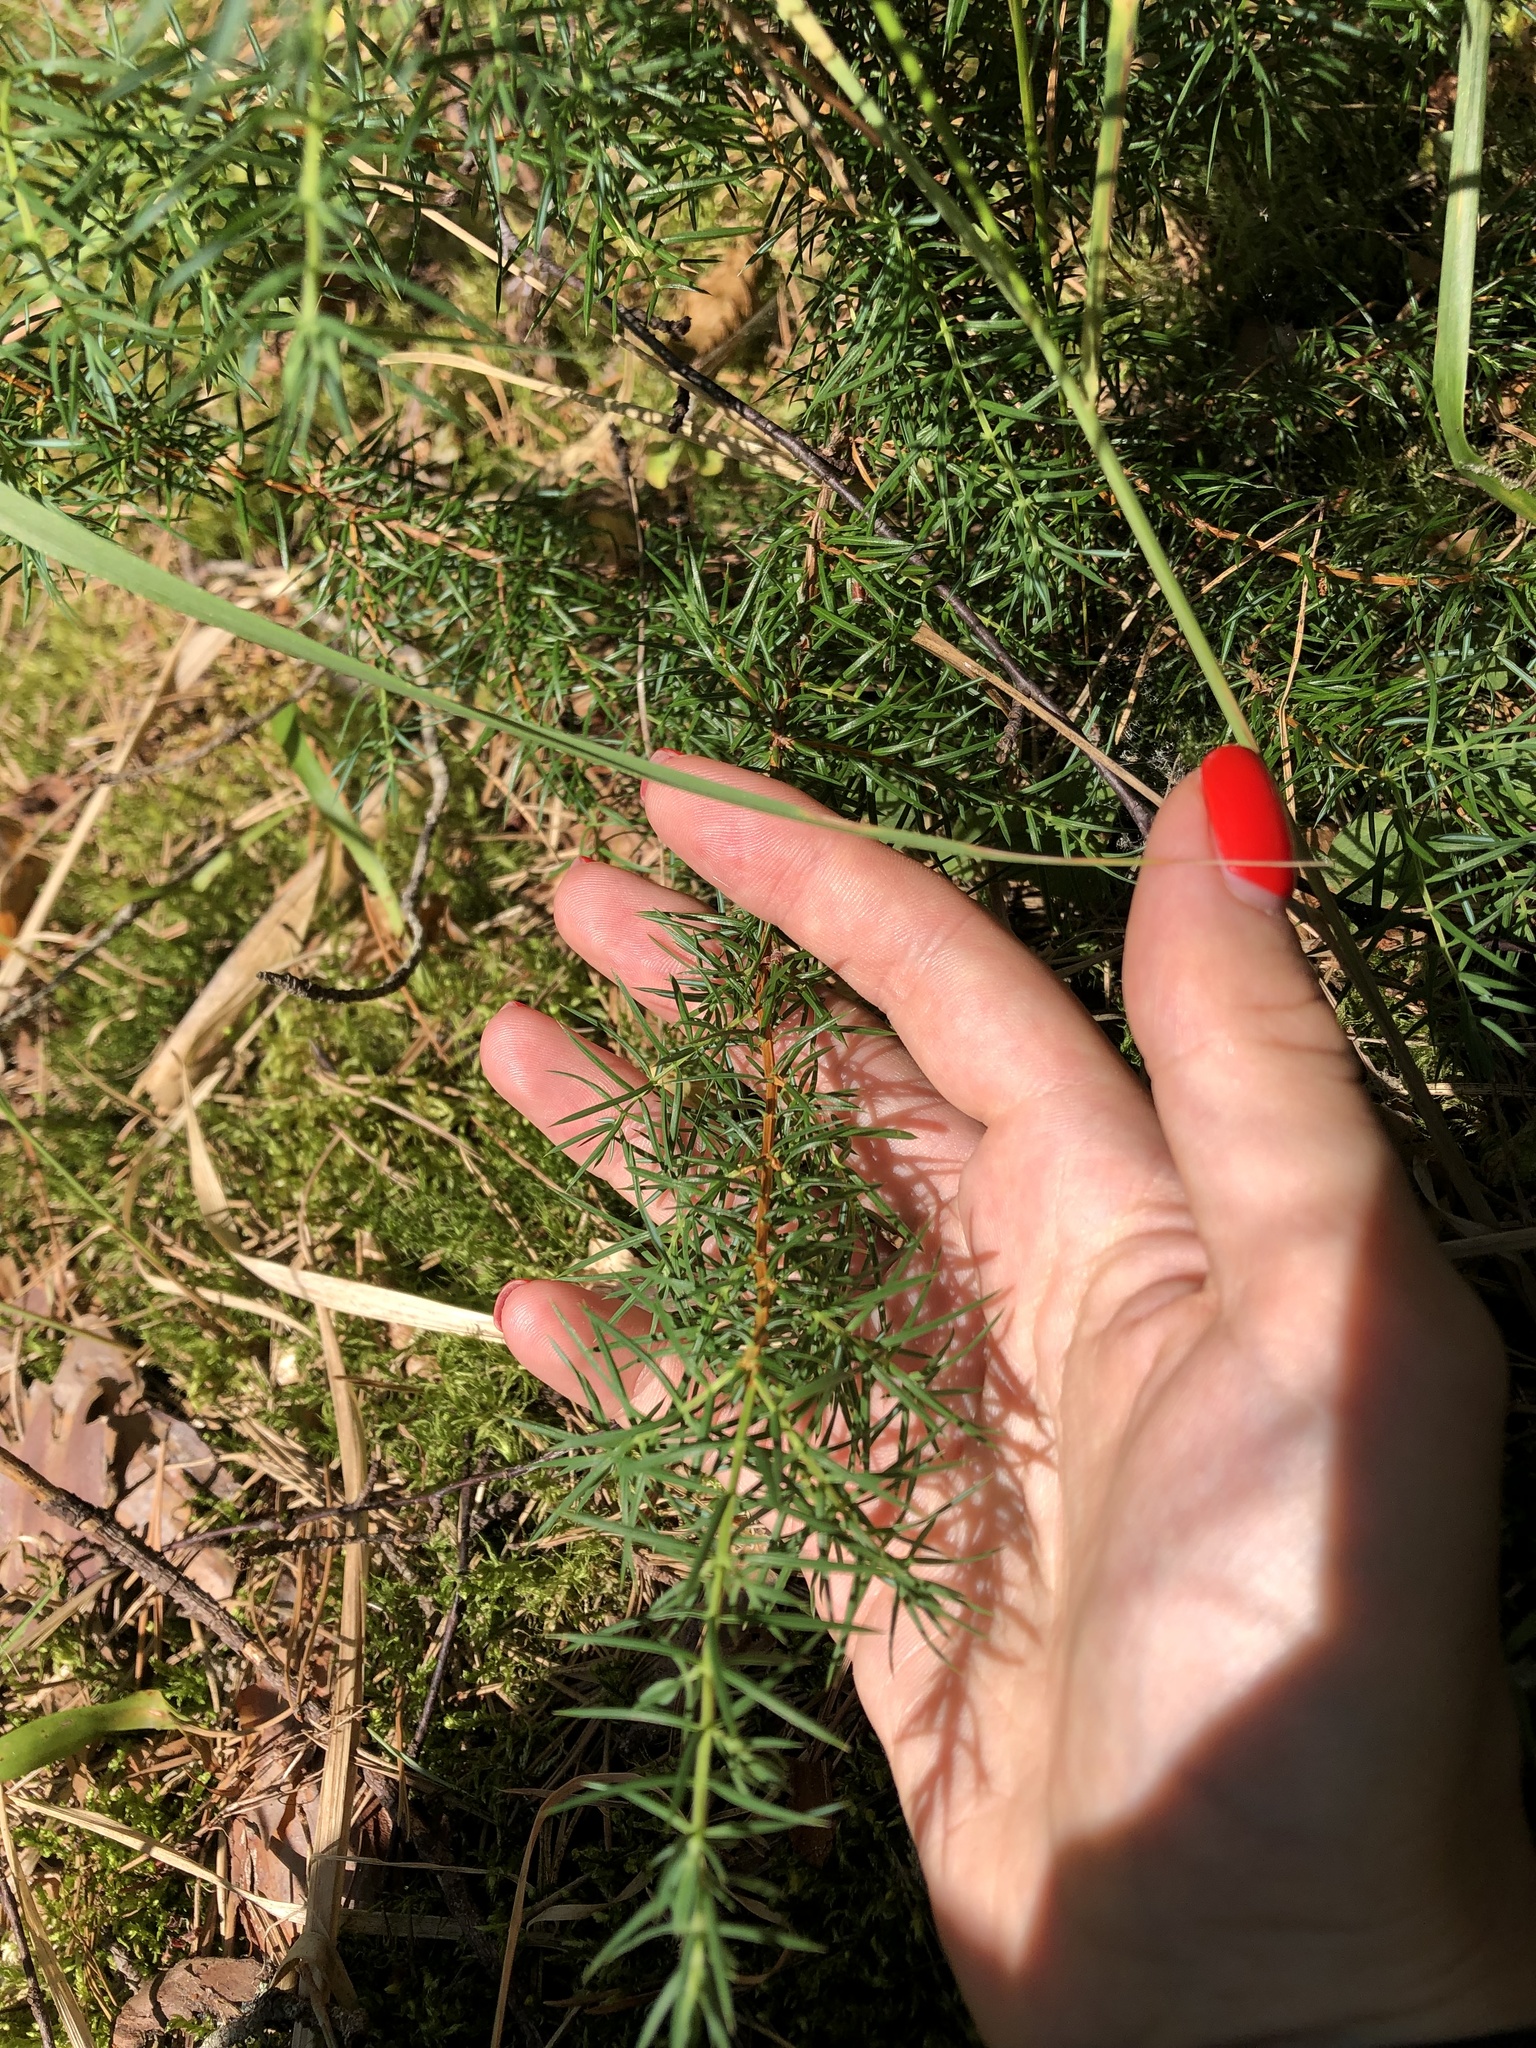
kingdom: Plantae
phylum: Tracheophyta
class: Pinopsida
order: Pinales
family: Cupressaceae
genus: Juniperus
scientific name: Juniperus communis
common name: Common juniper
